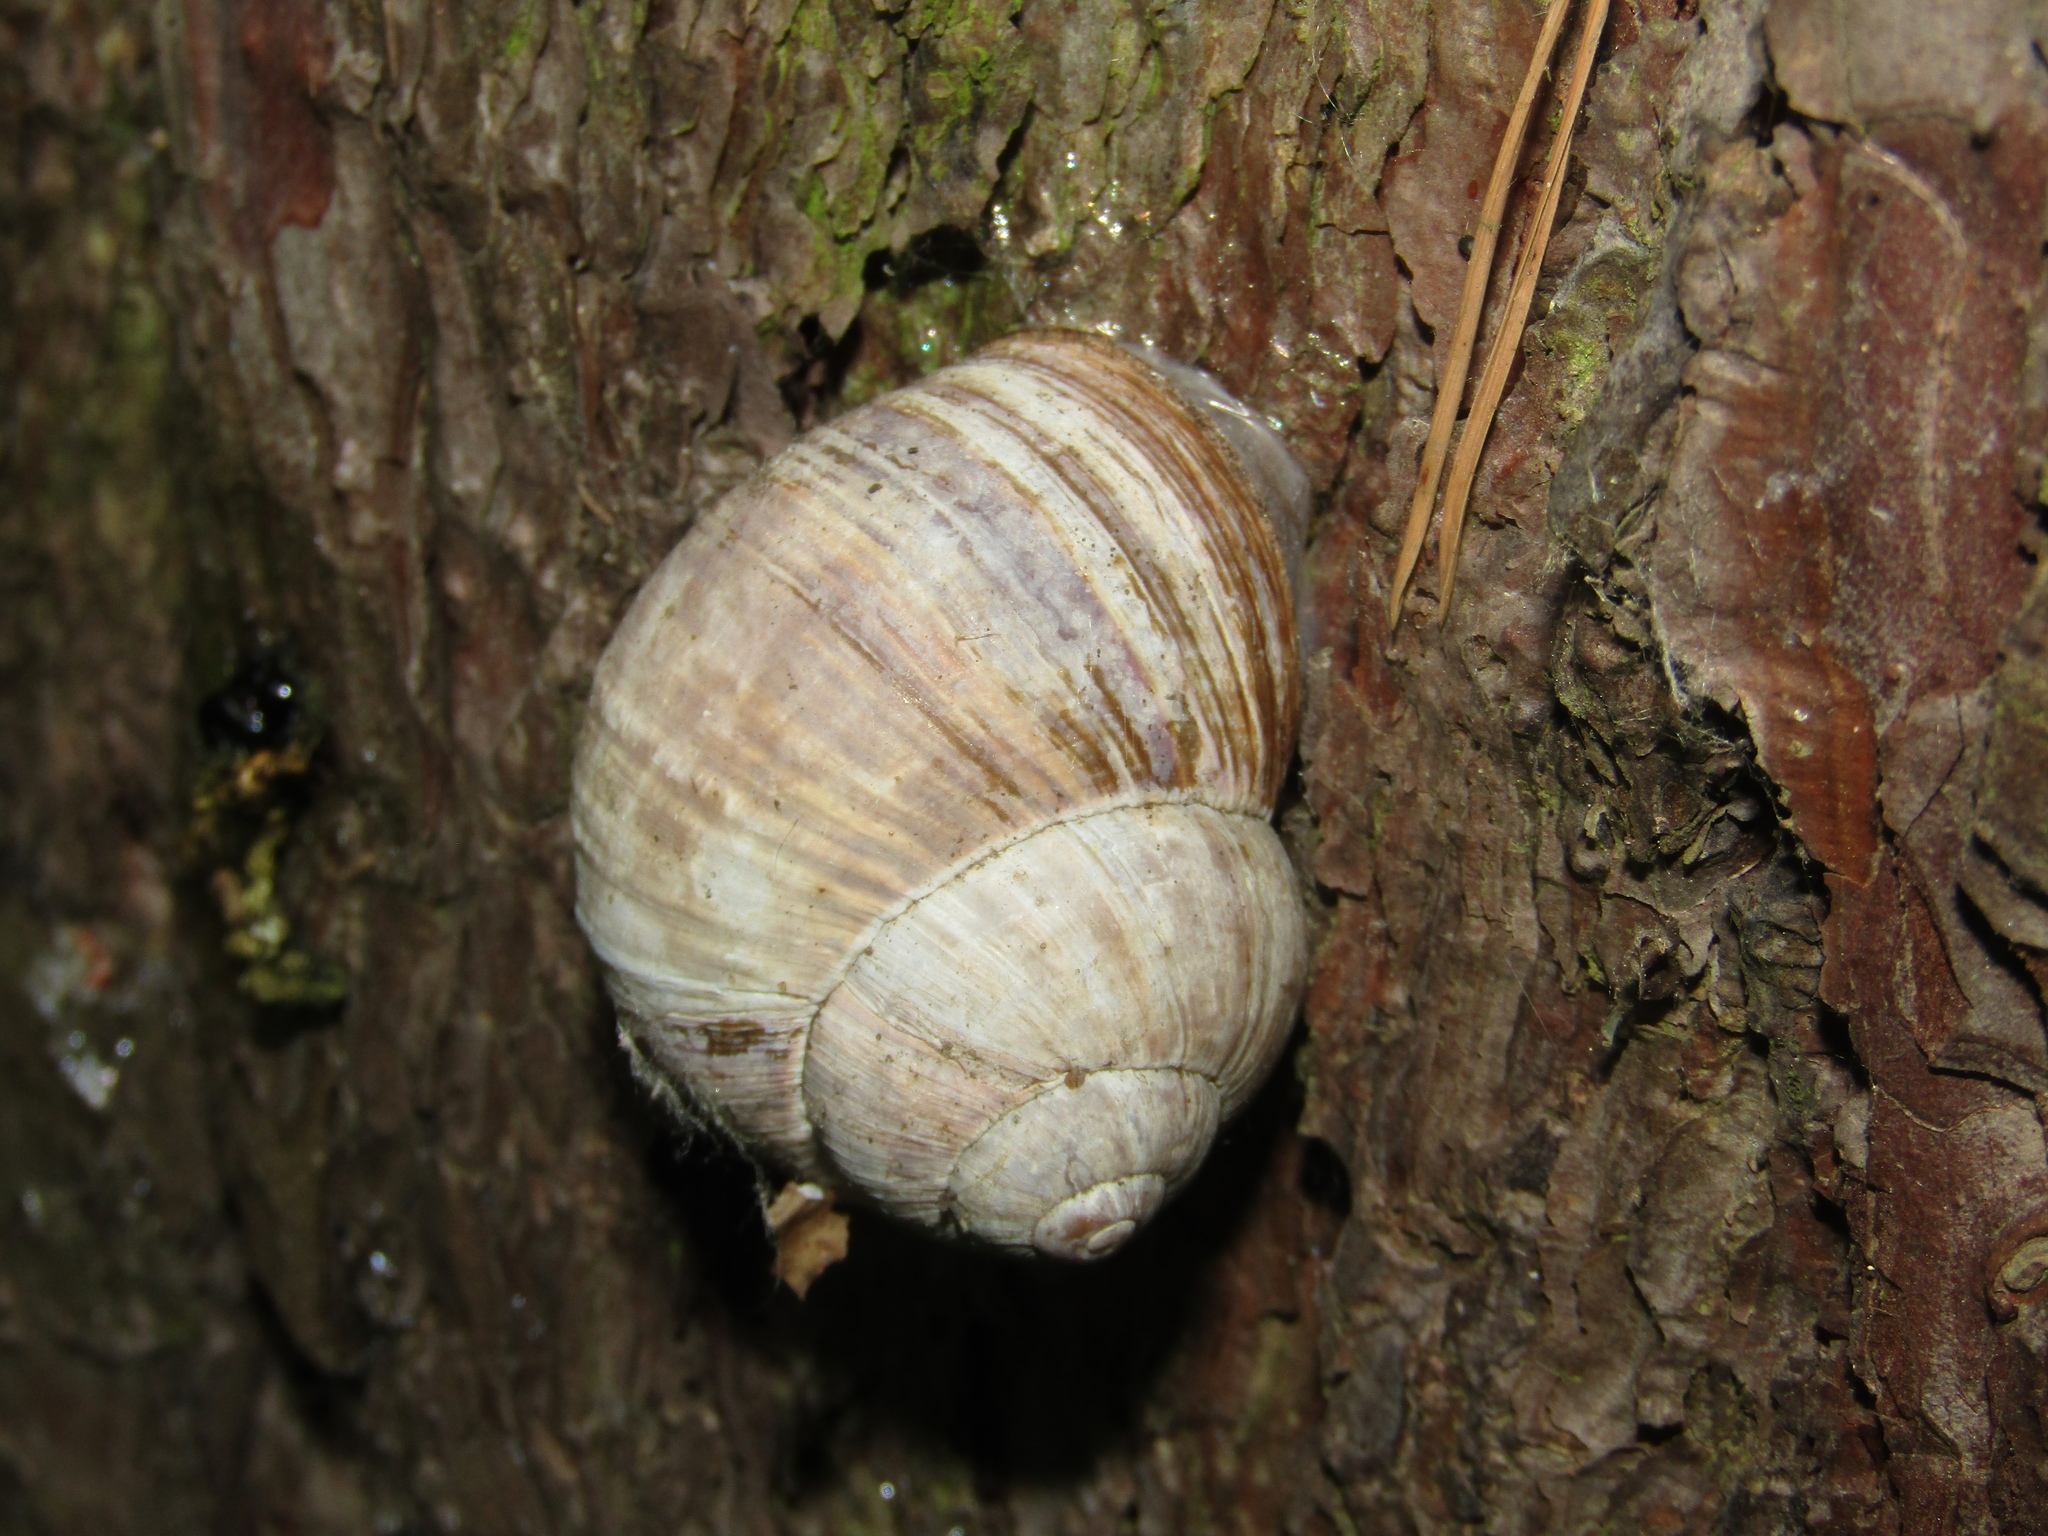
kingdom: Animalia
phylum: Mollusca
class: Gastropoda
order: Stylommatophora
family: Helicidae
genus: Helix
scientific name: Helix pomatia
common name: Roman snail
